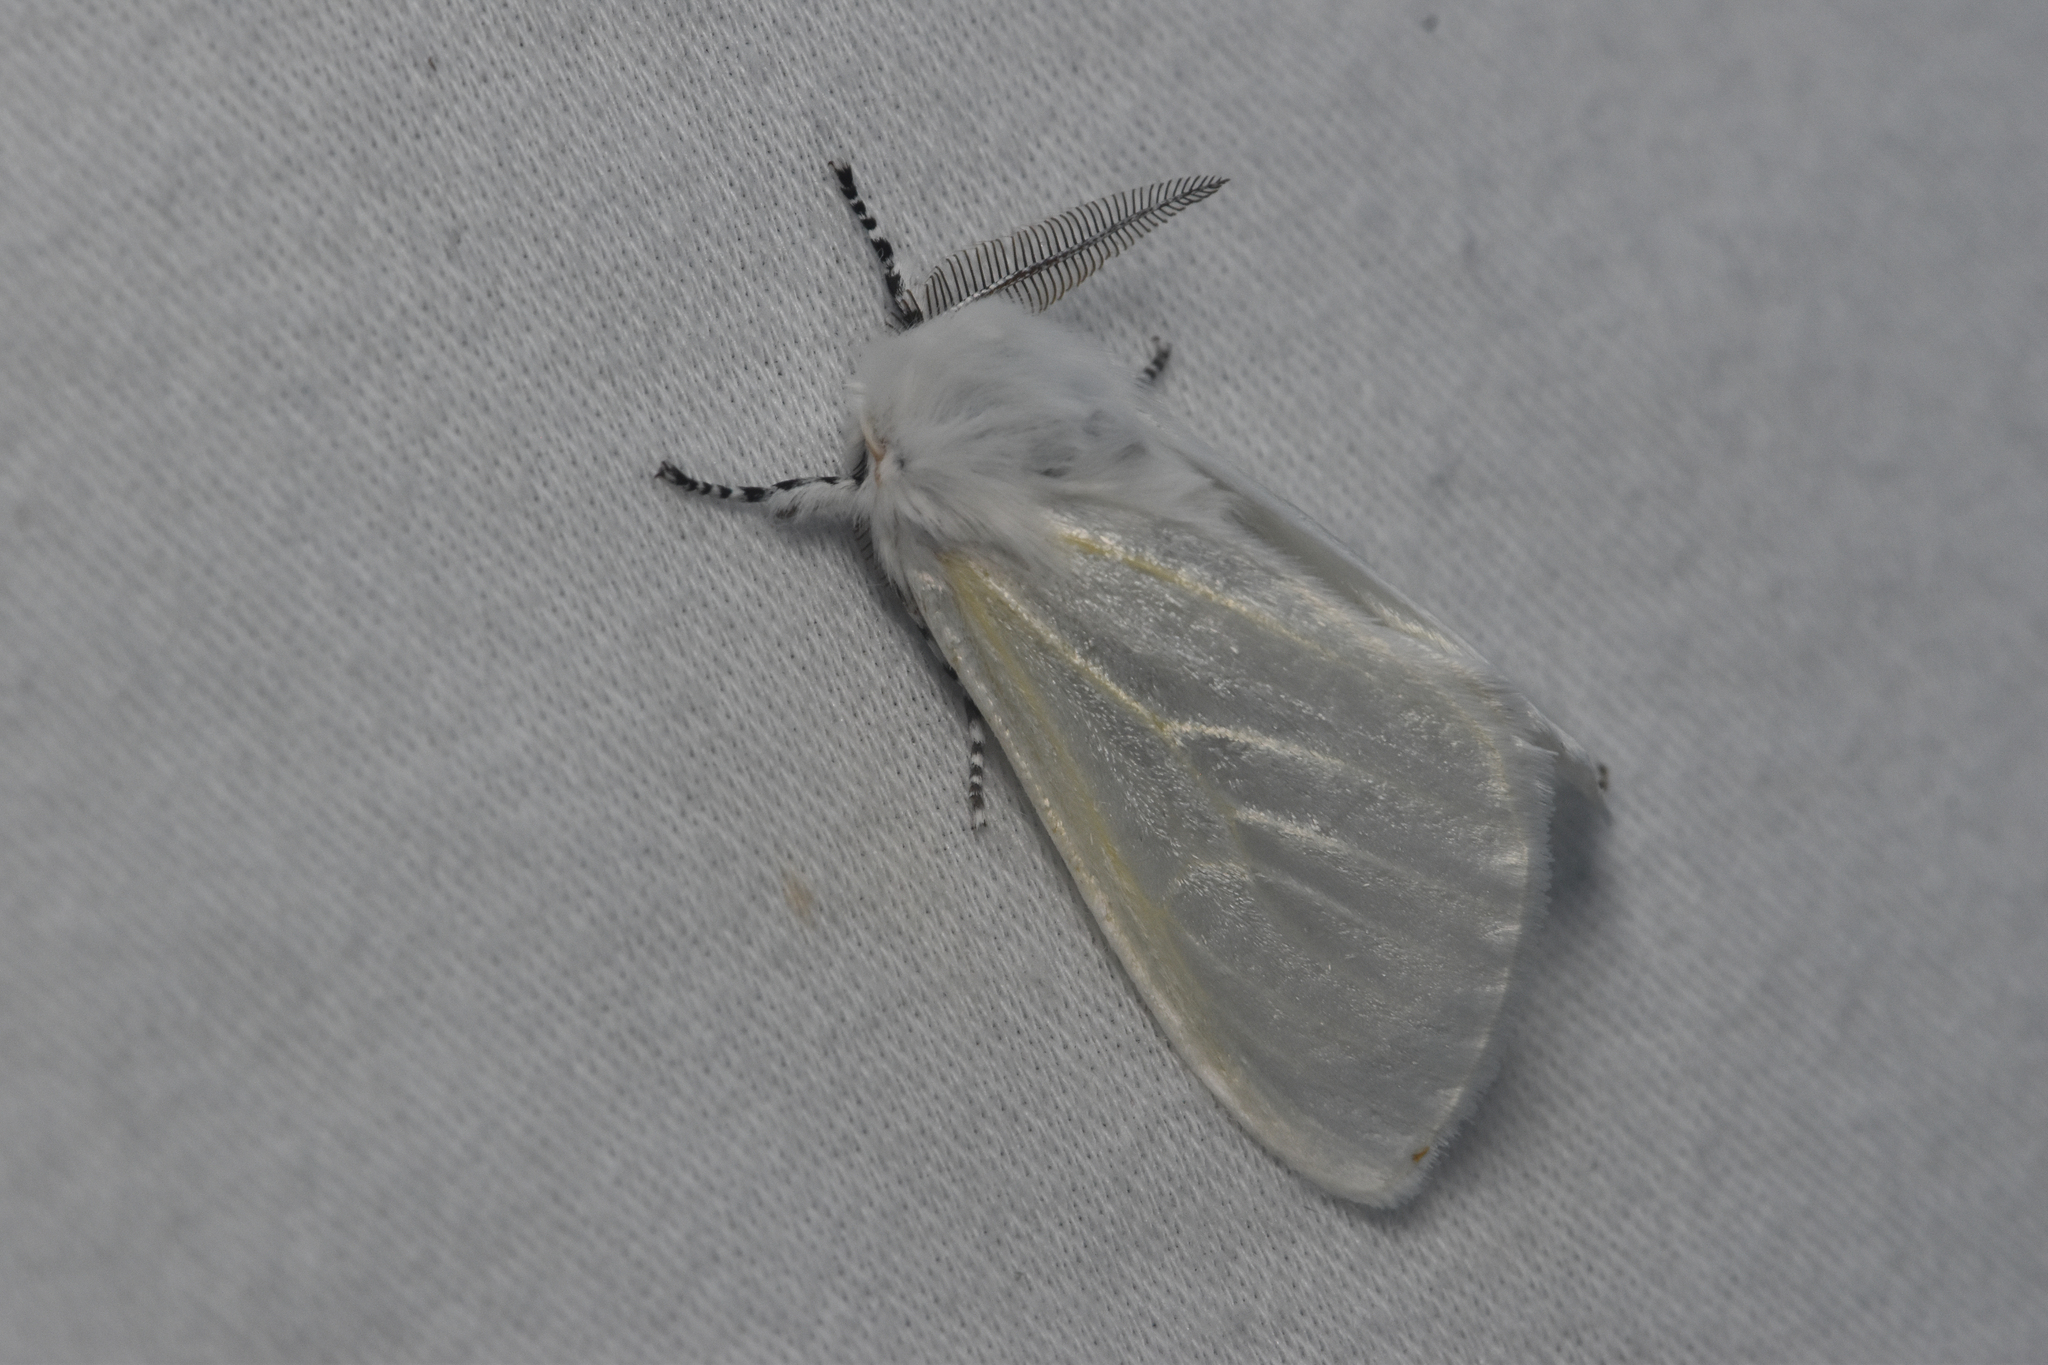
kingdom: Animalia
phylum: Arthropoda
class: Insecta
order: Lepidoptera
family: Erebidae
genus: Leucoma
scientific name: Leucoma salicis
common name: White satin moth
